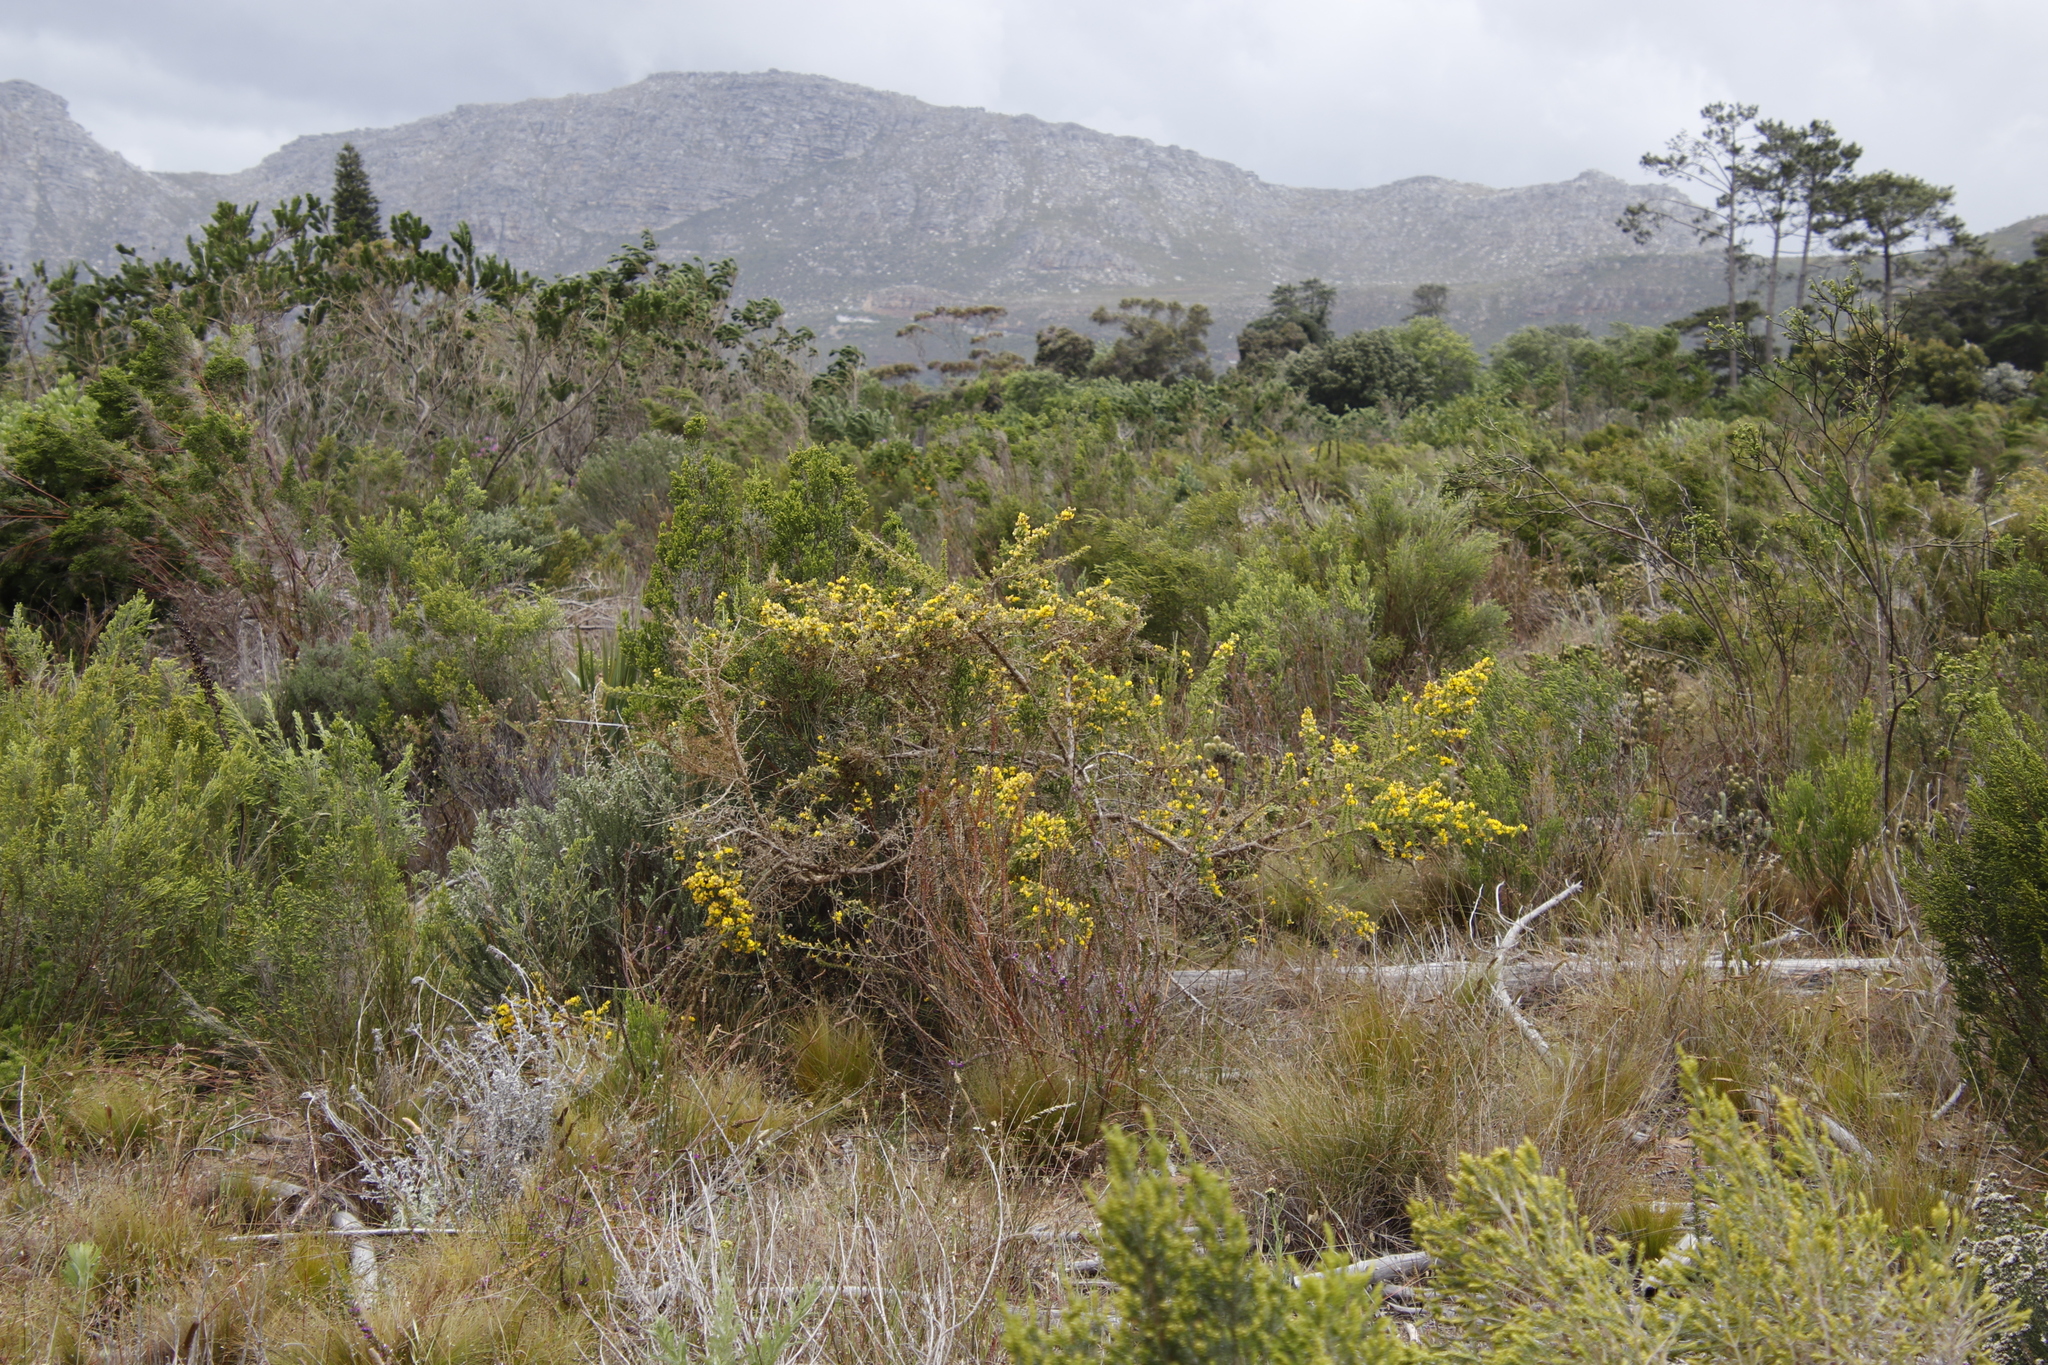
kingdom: Plantae
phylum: Tracheophyta
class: Magnoliopsida
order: Fabales
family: Fabaceae
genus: Aspalathus
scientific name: Aspalathus astroites
